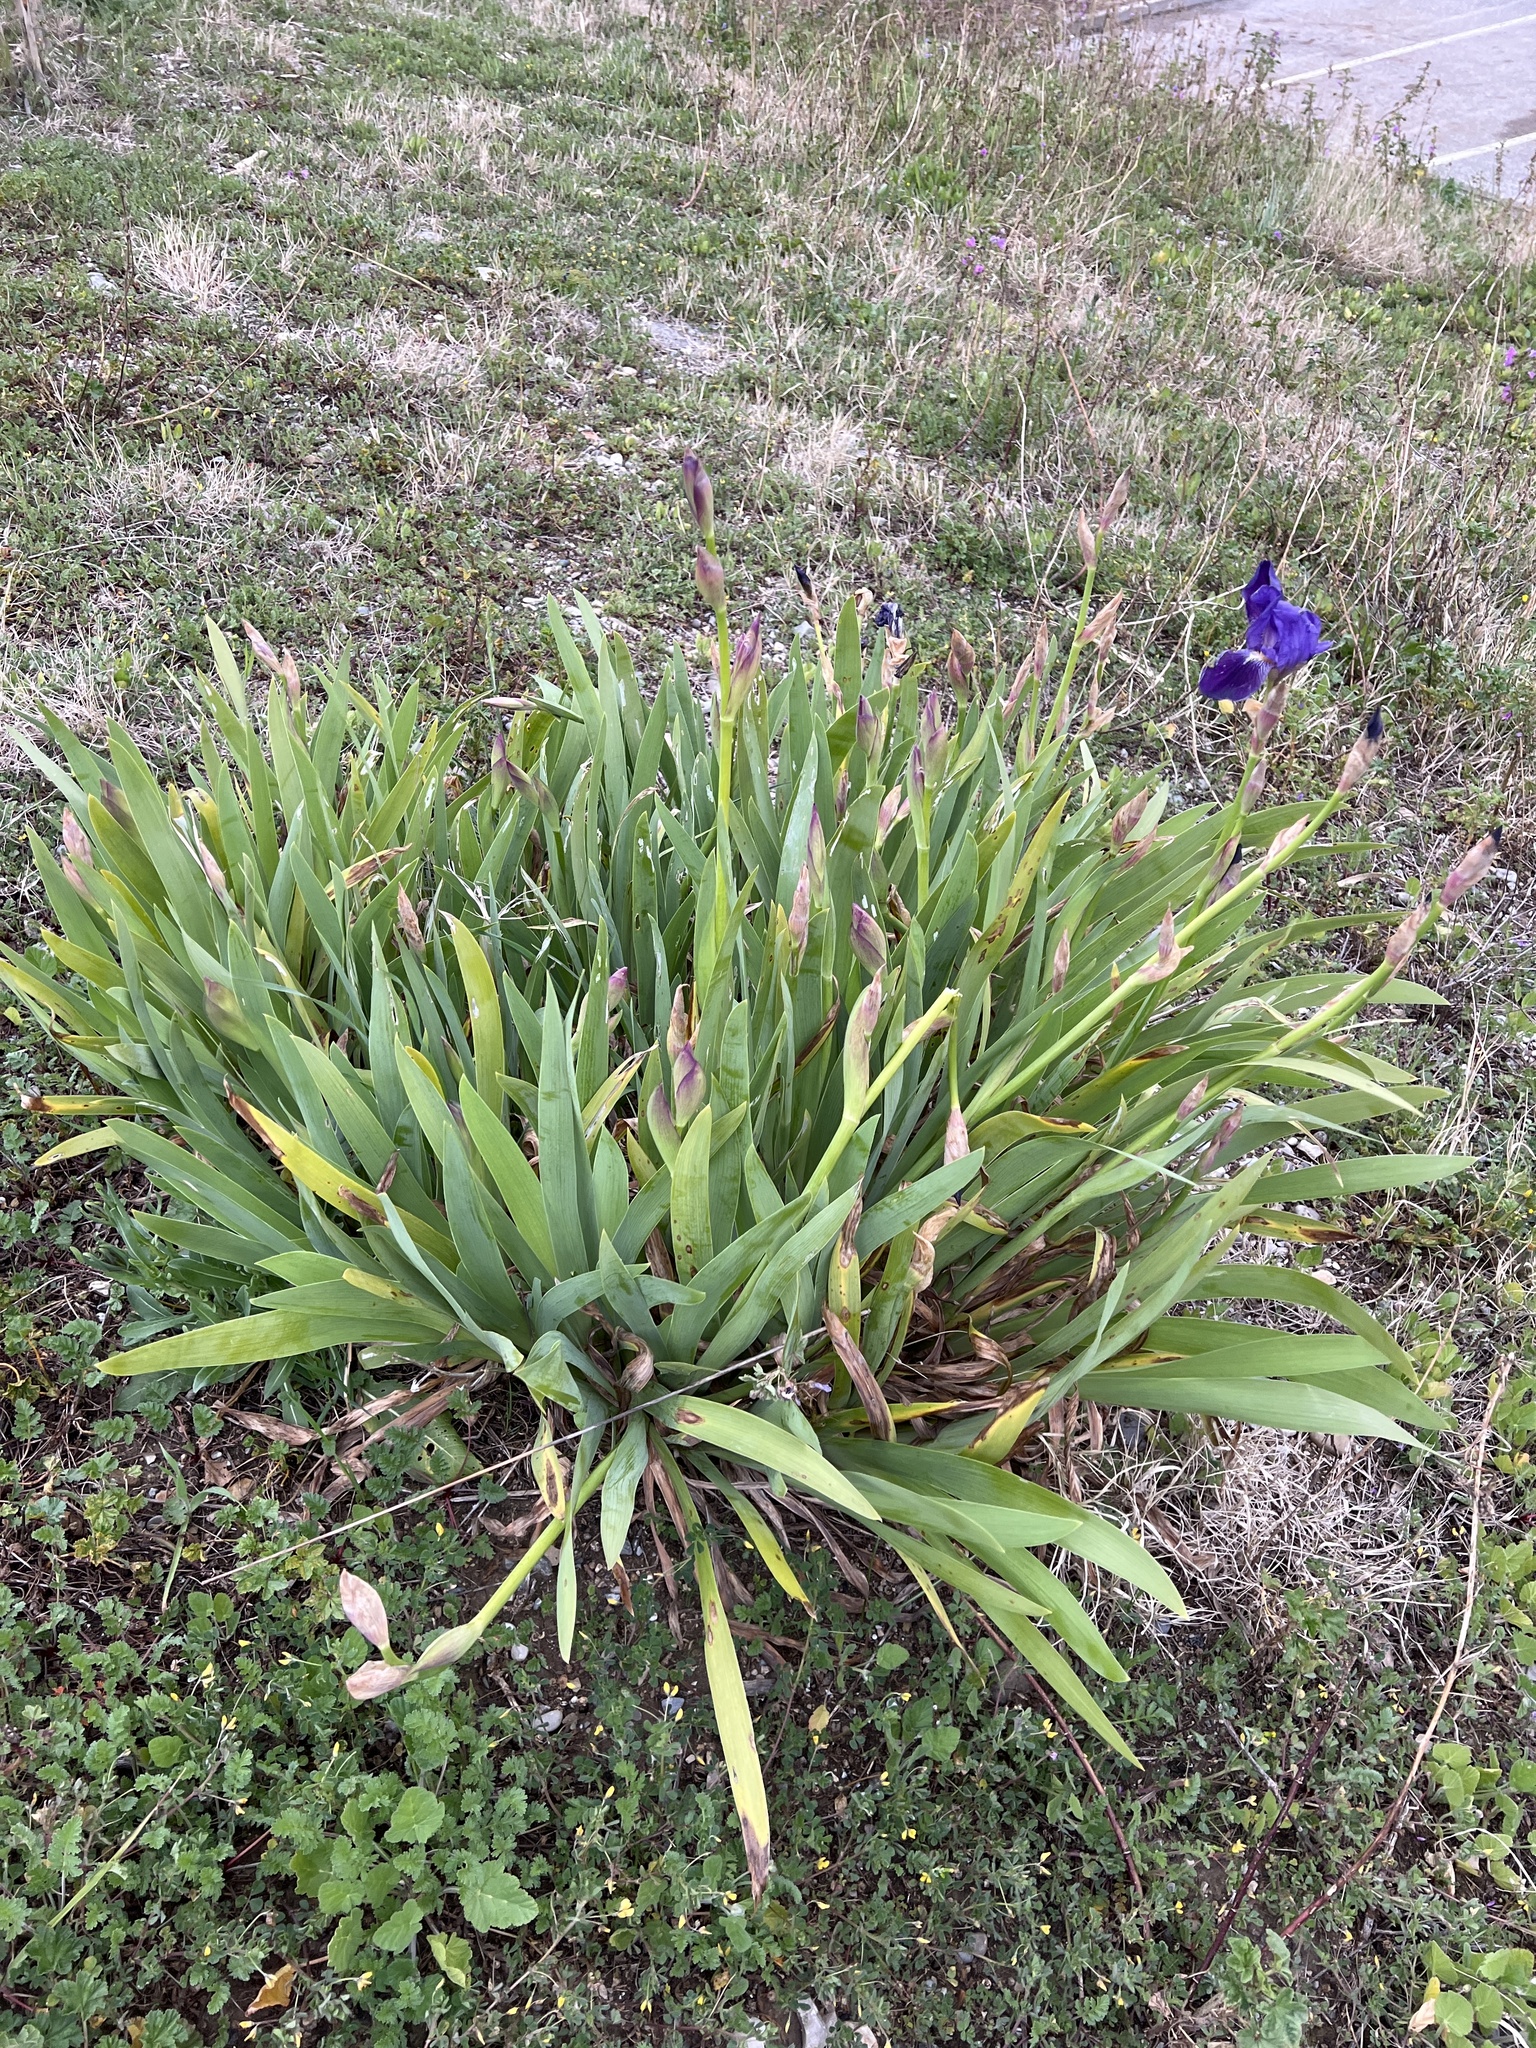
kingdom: Plantae
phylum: Tracheophyta
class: Liliopsida
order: Asparagales
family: Iridaceae
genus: Iris
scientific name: Iris germanica
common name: German iris
